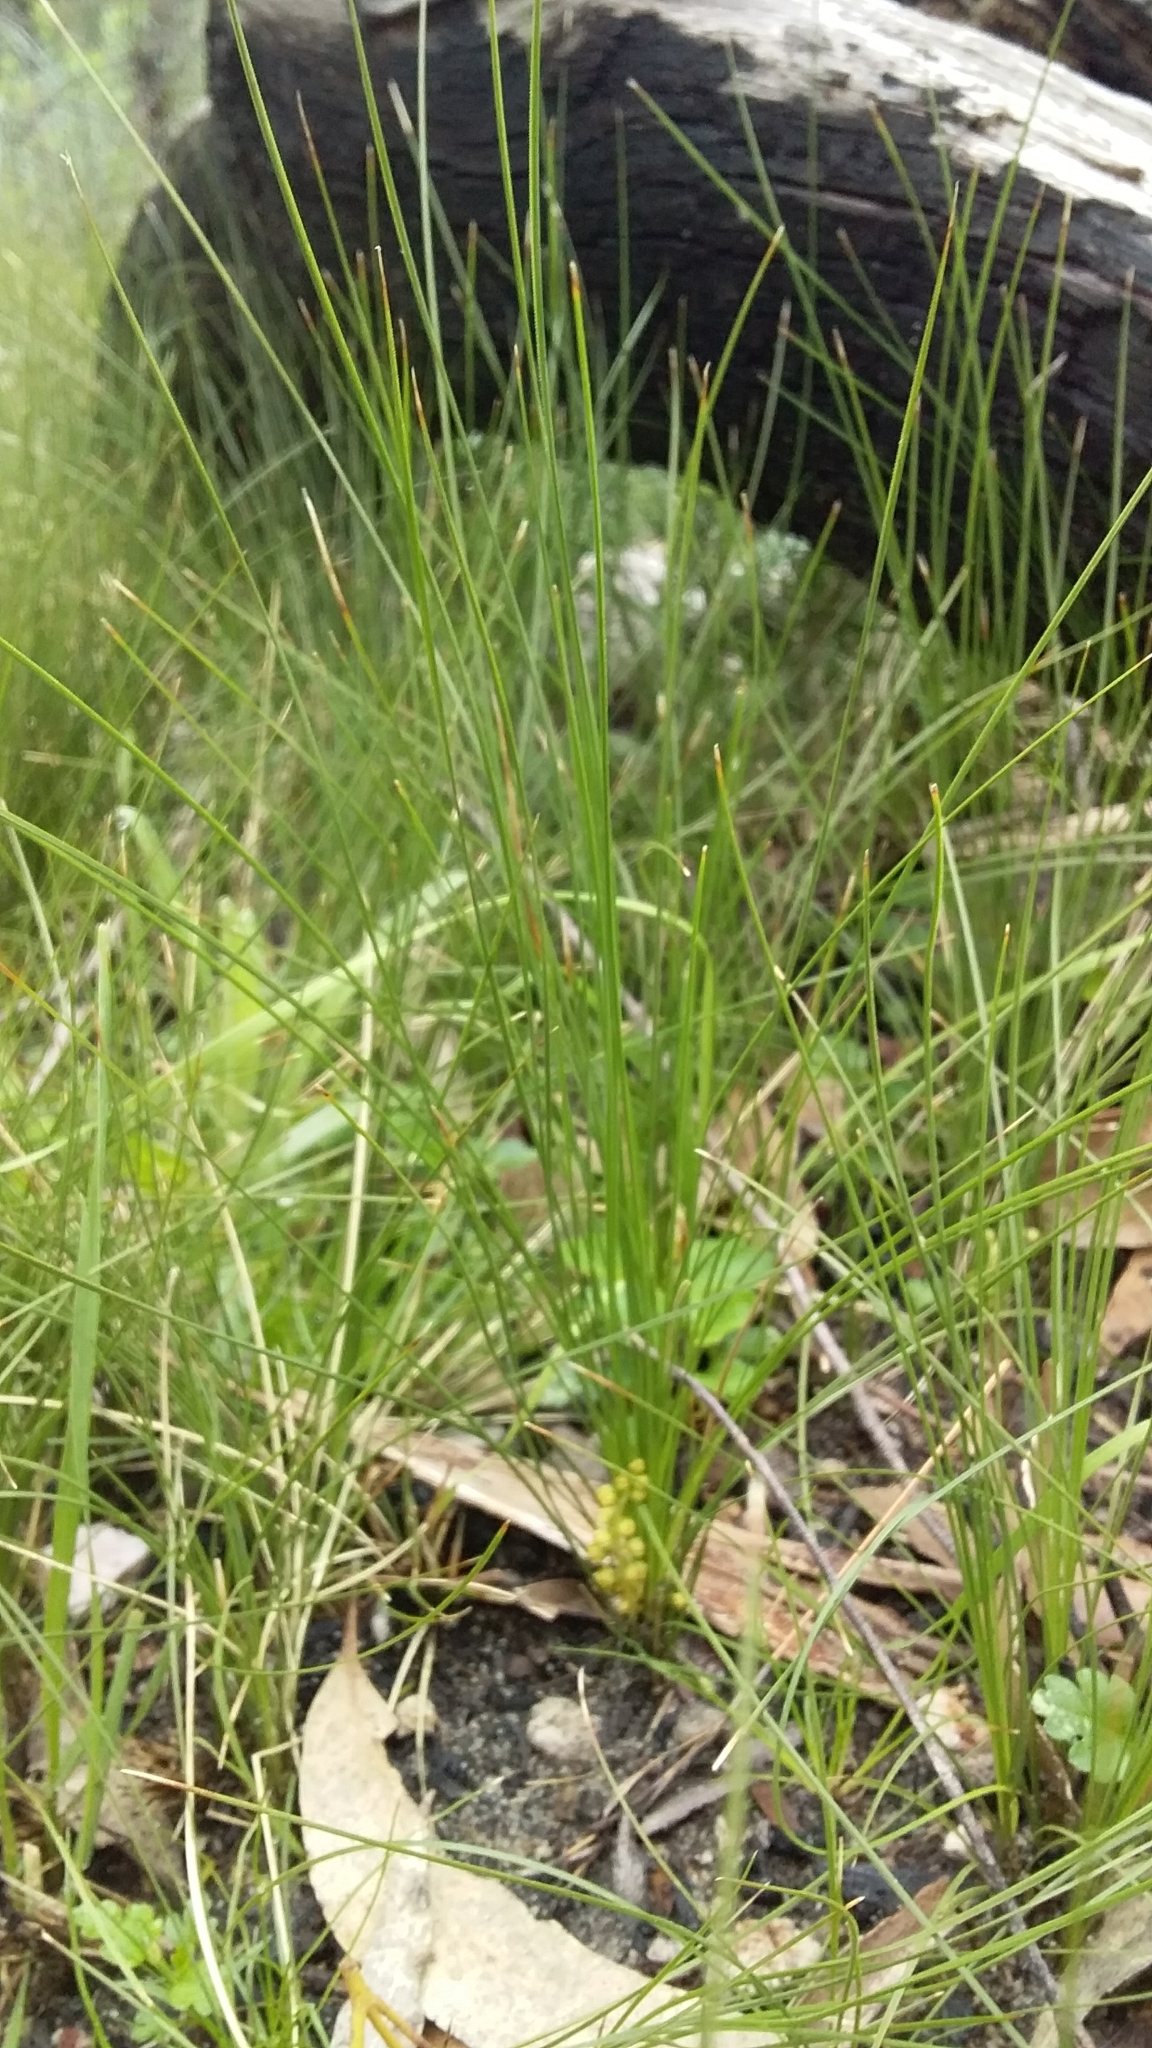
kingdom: Plantae
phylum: Tracheophyta
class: Liliopsida
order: Asparagales
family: Asparagaceae
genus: Lomandra
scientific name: Lomandra fibrata
